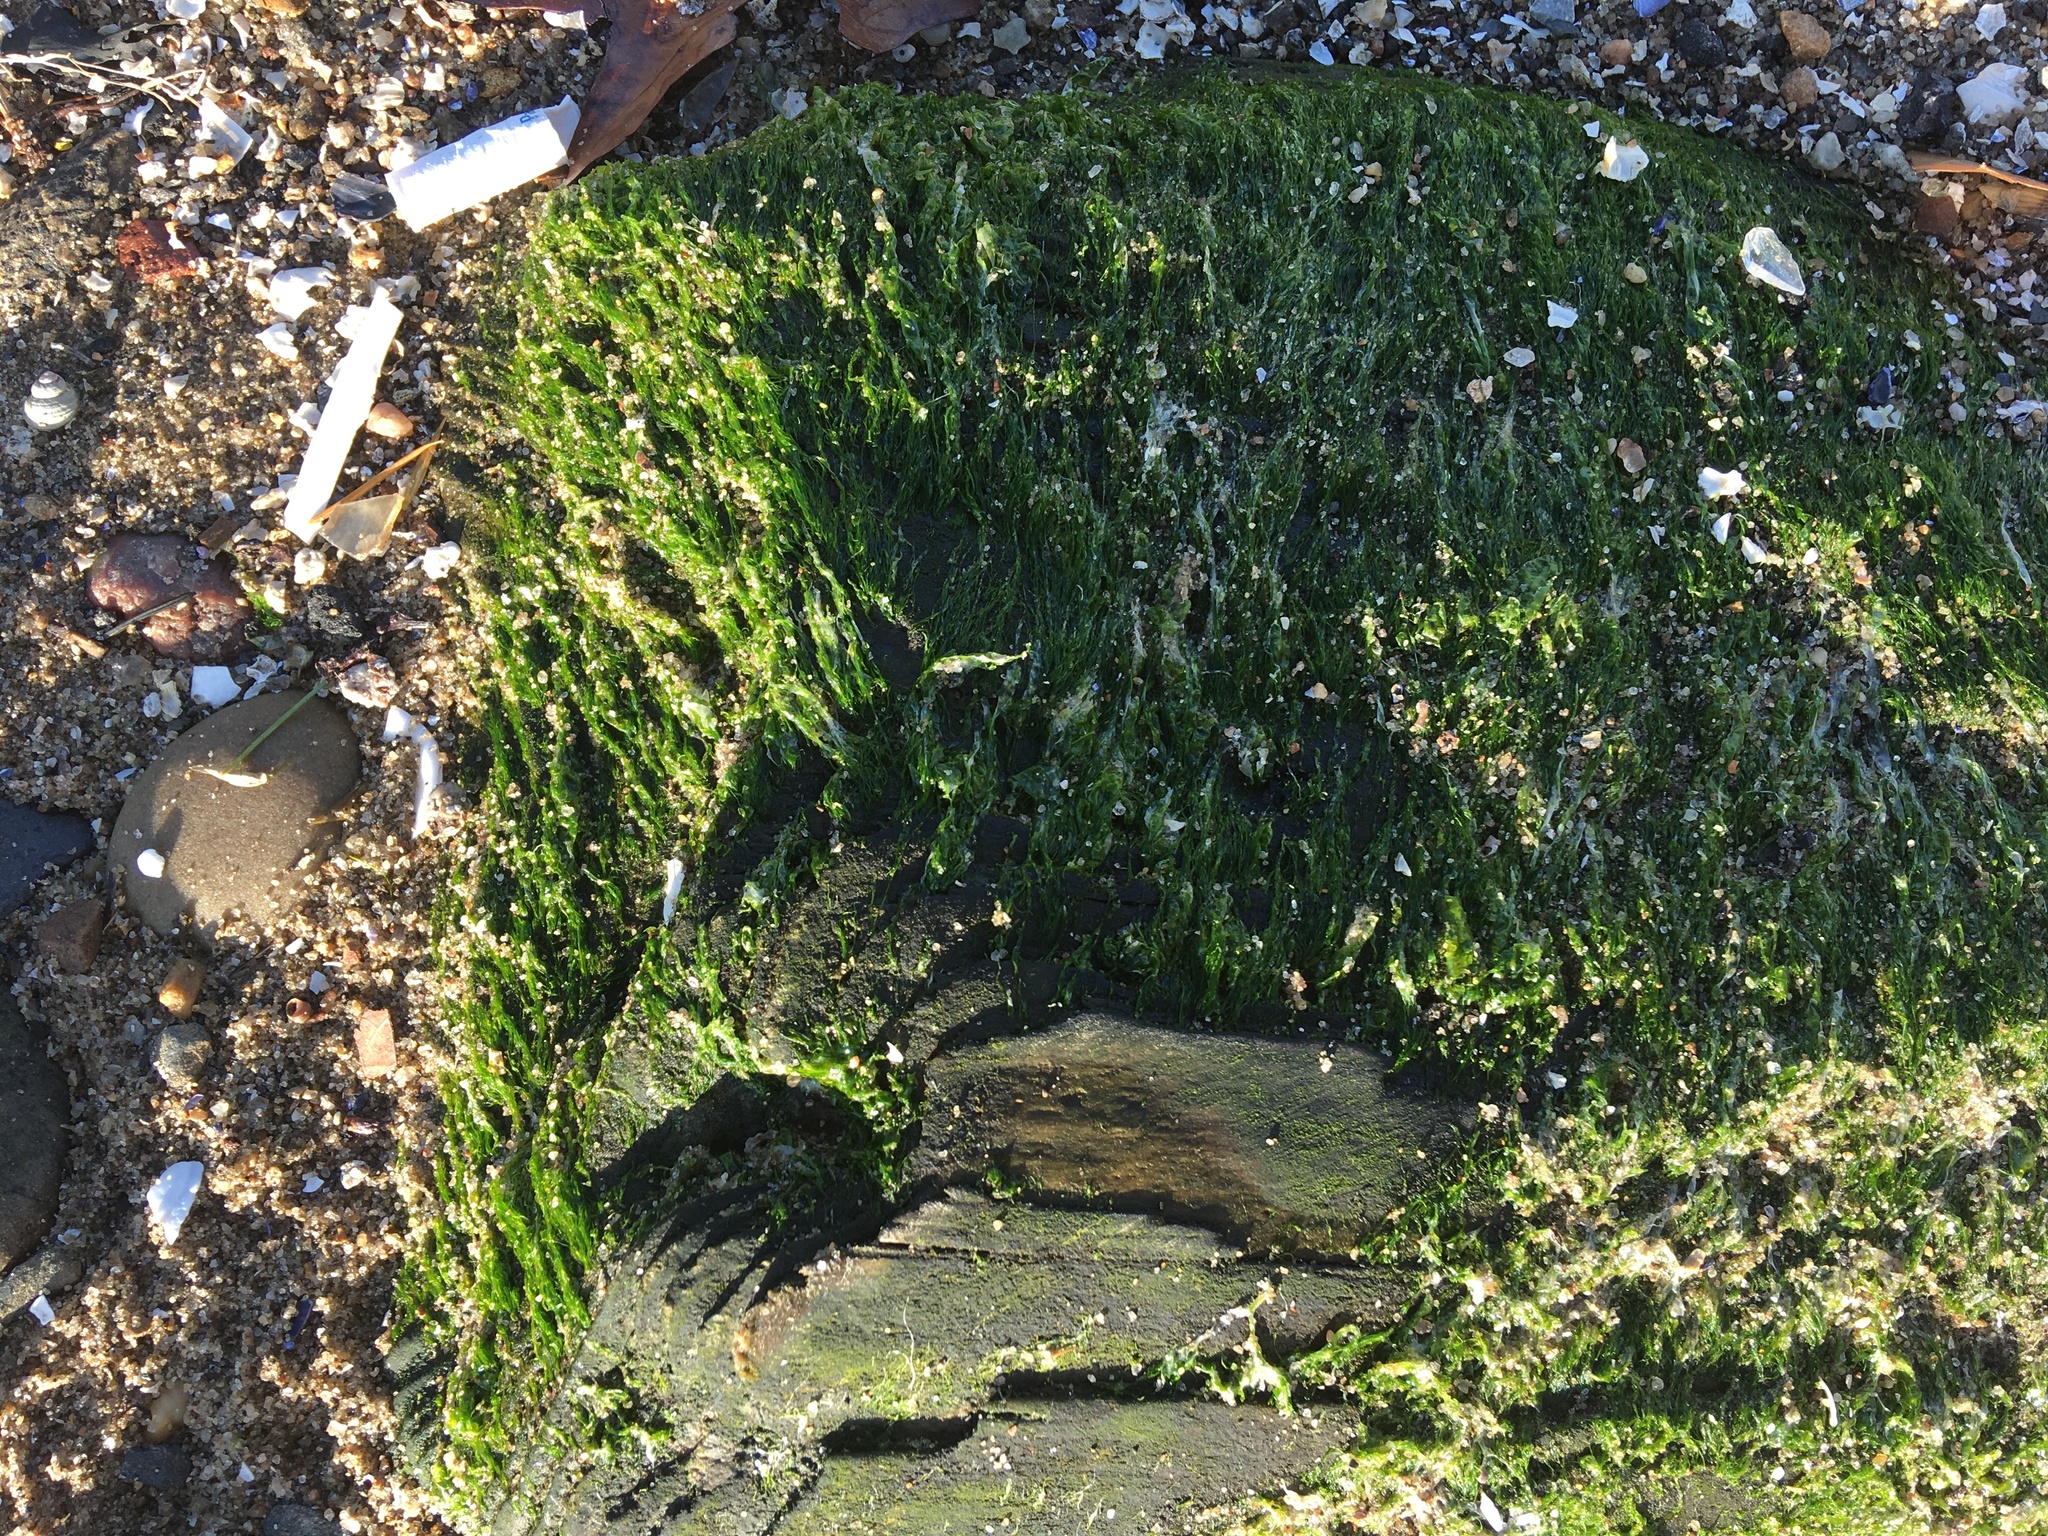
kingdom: Plantae
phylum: Chlorophyta
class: Ulvophyceae
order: Ulvales
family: Ulvaceae
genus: Ulva
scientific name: Ulva intestinalis
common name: Gut weed
